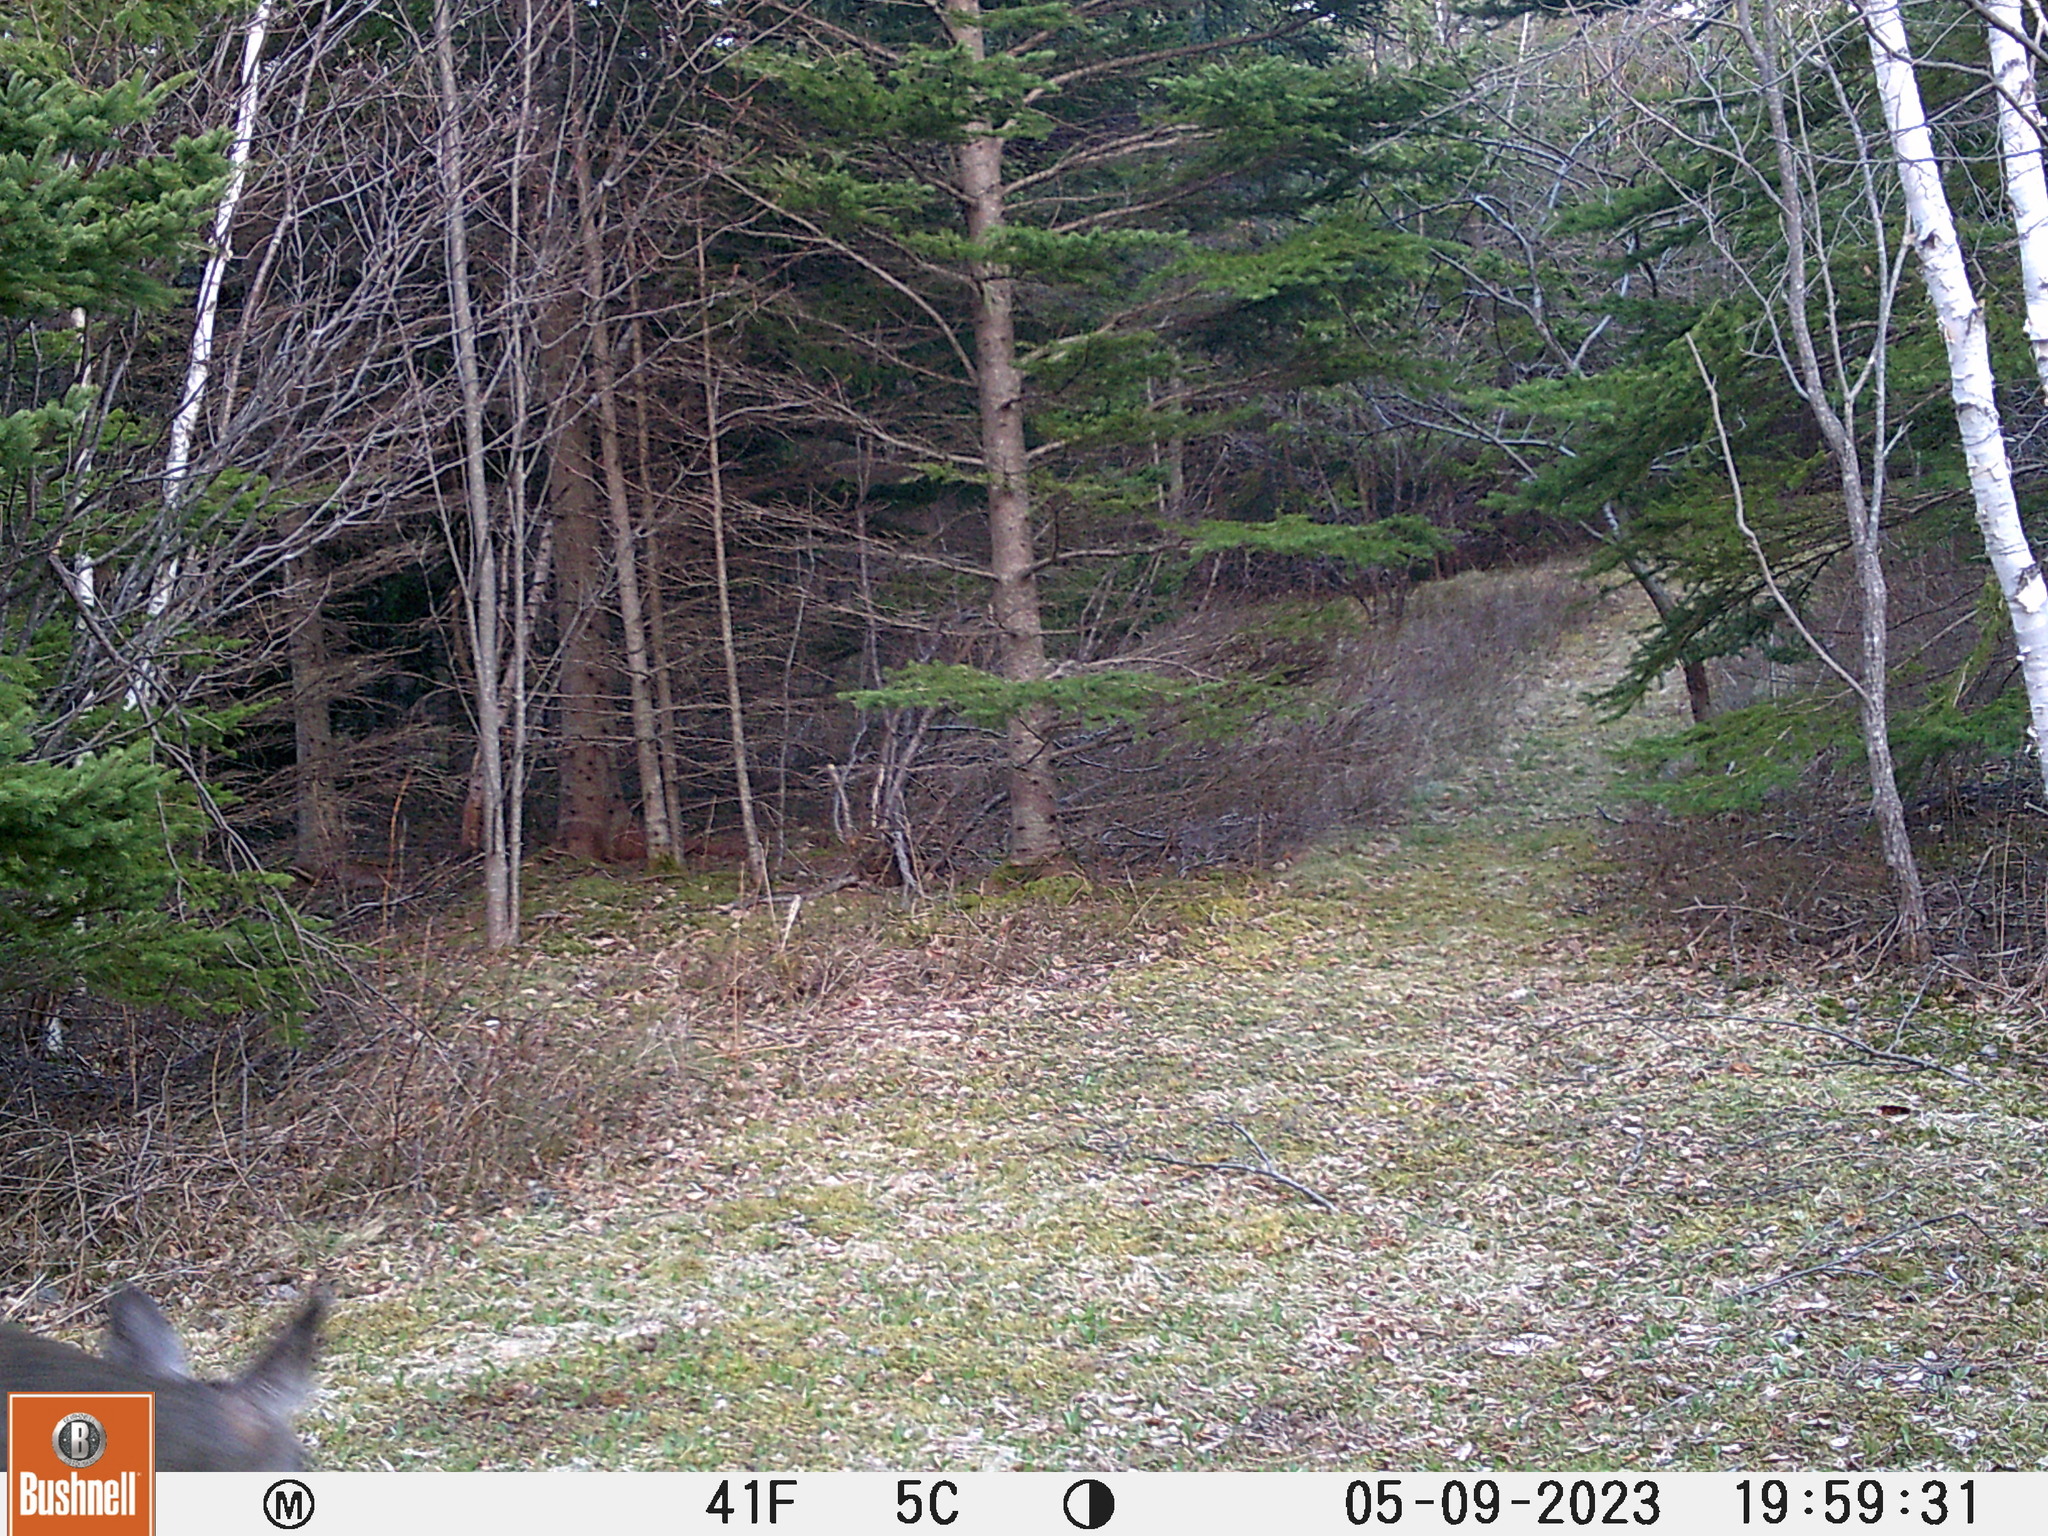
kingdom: Animalia
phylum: Chordata
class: Mammalia
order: Artiodactyla
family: Cervidae
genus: Odocoileus
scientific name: Odocoileus virginianus
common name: White-tailed deer
